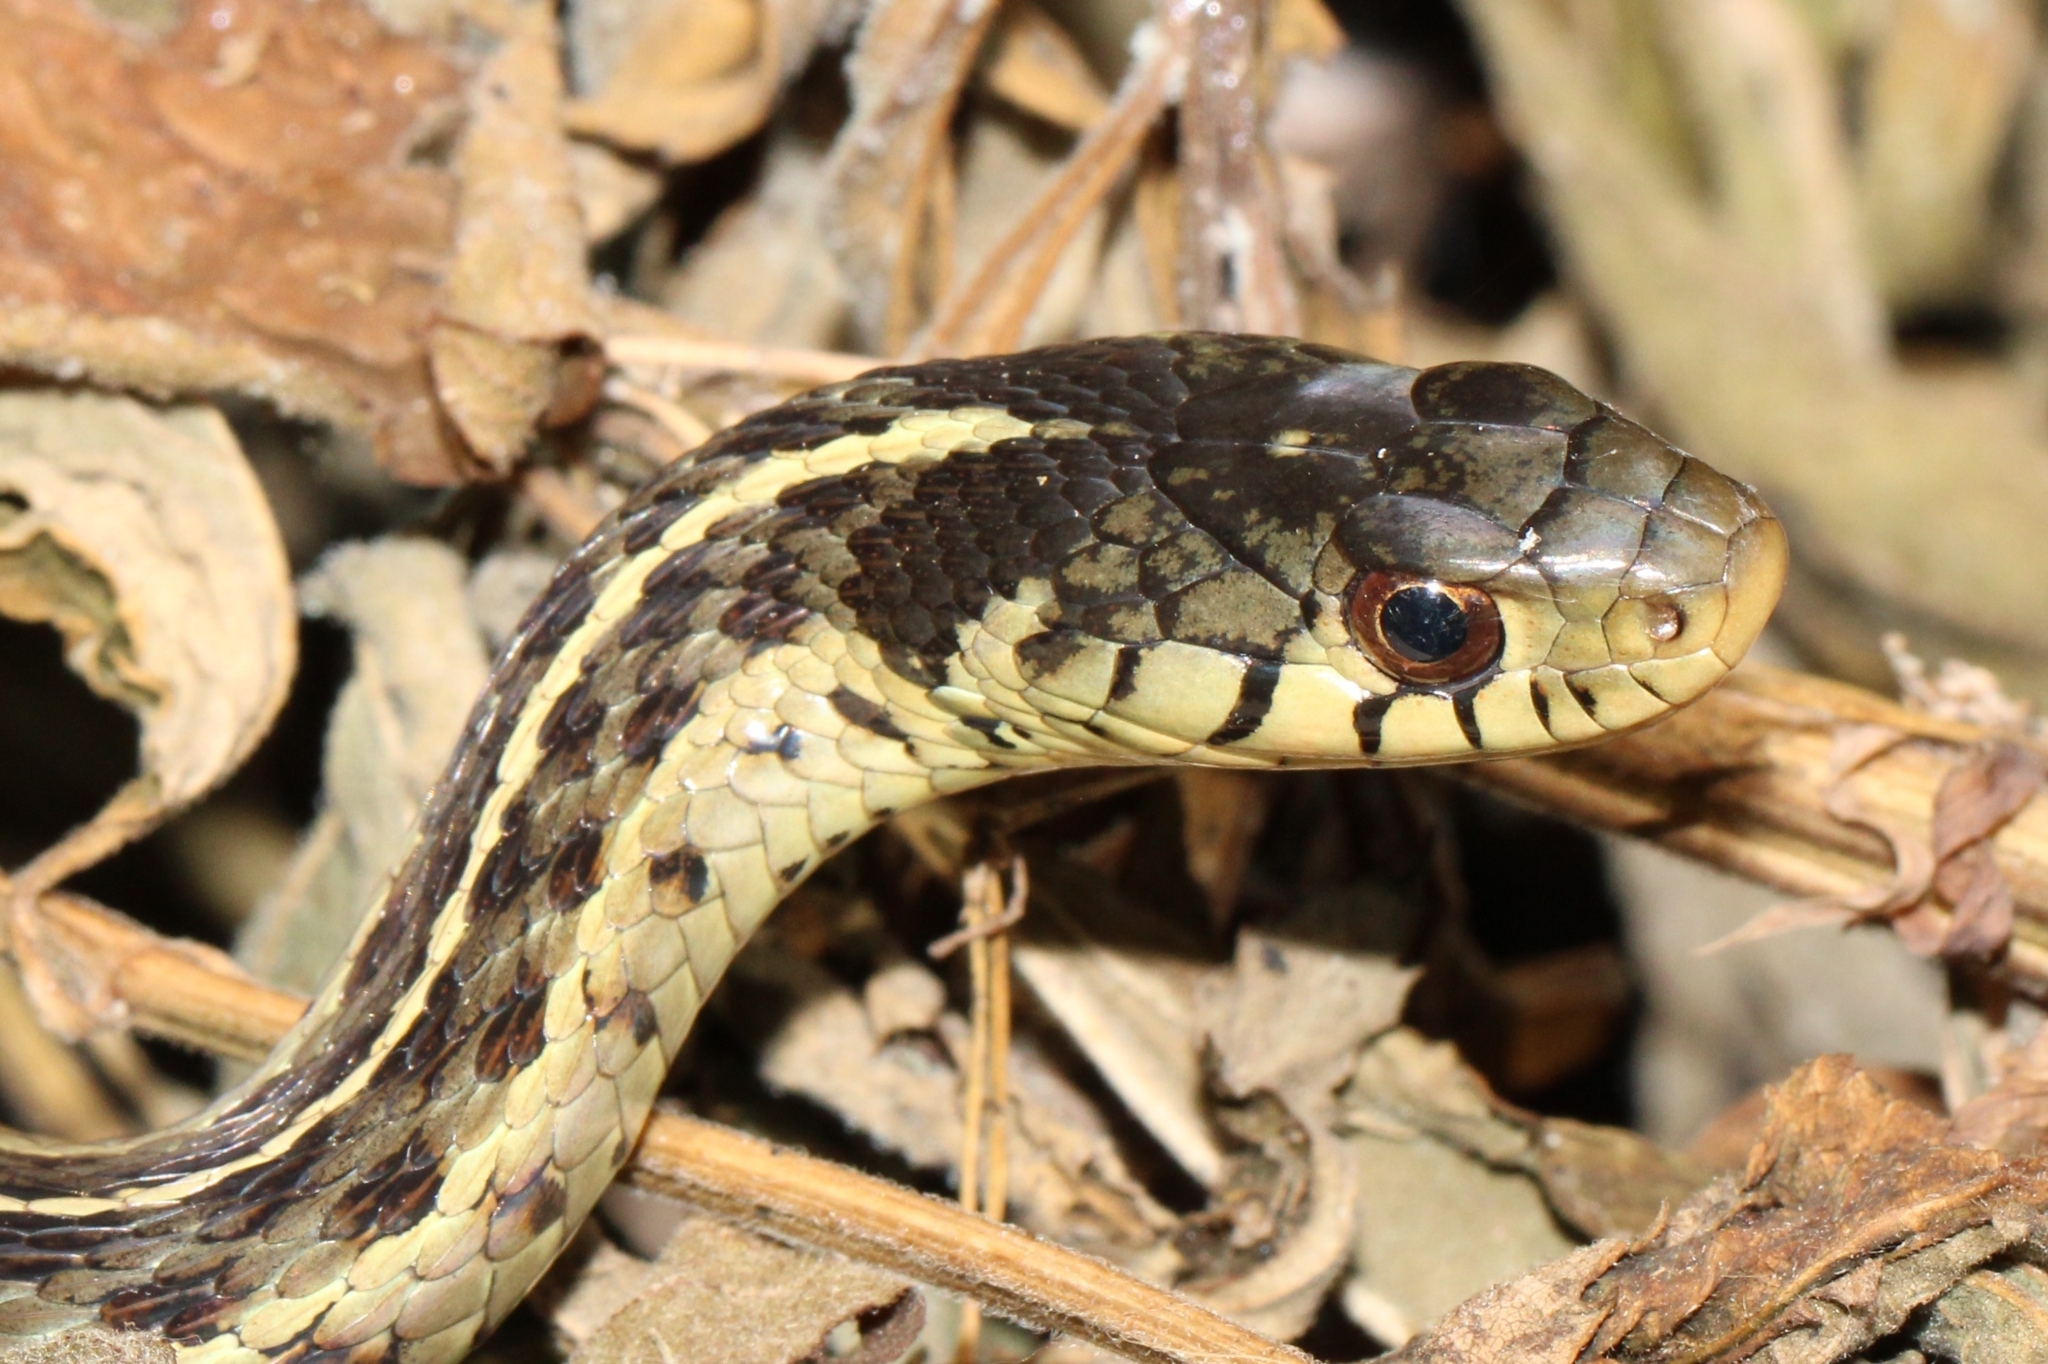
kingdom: Animalia
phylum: Chordata
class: Squamata
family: Colubridae
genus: Thamnophis
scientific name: Thamnophis sirtalis
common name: Common garter snake
